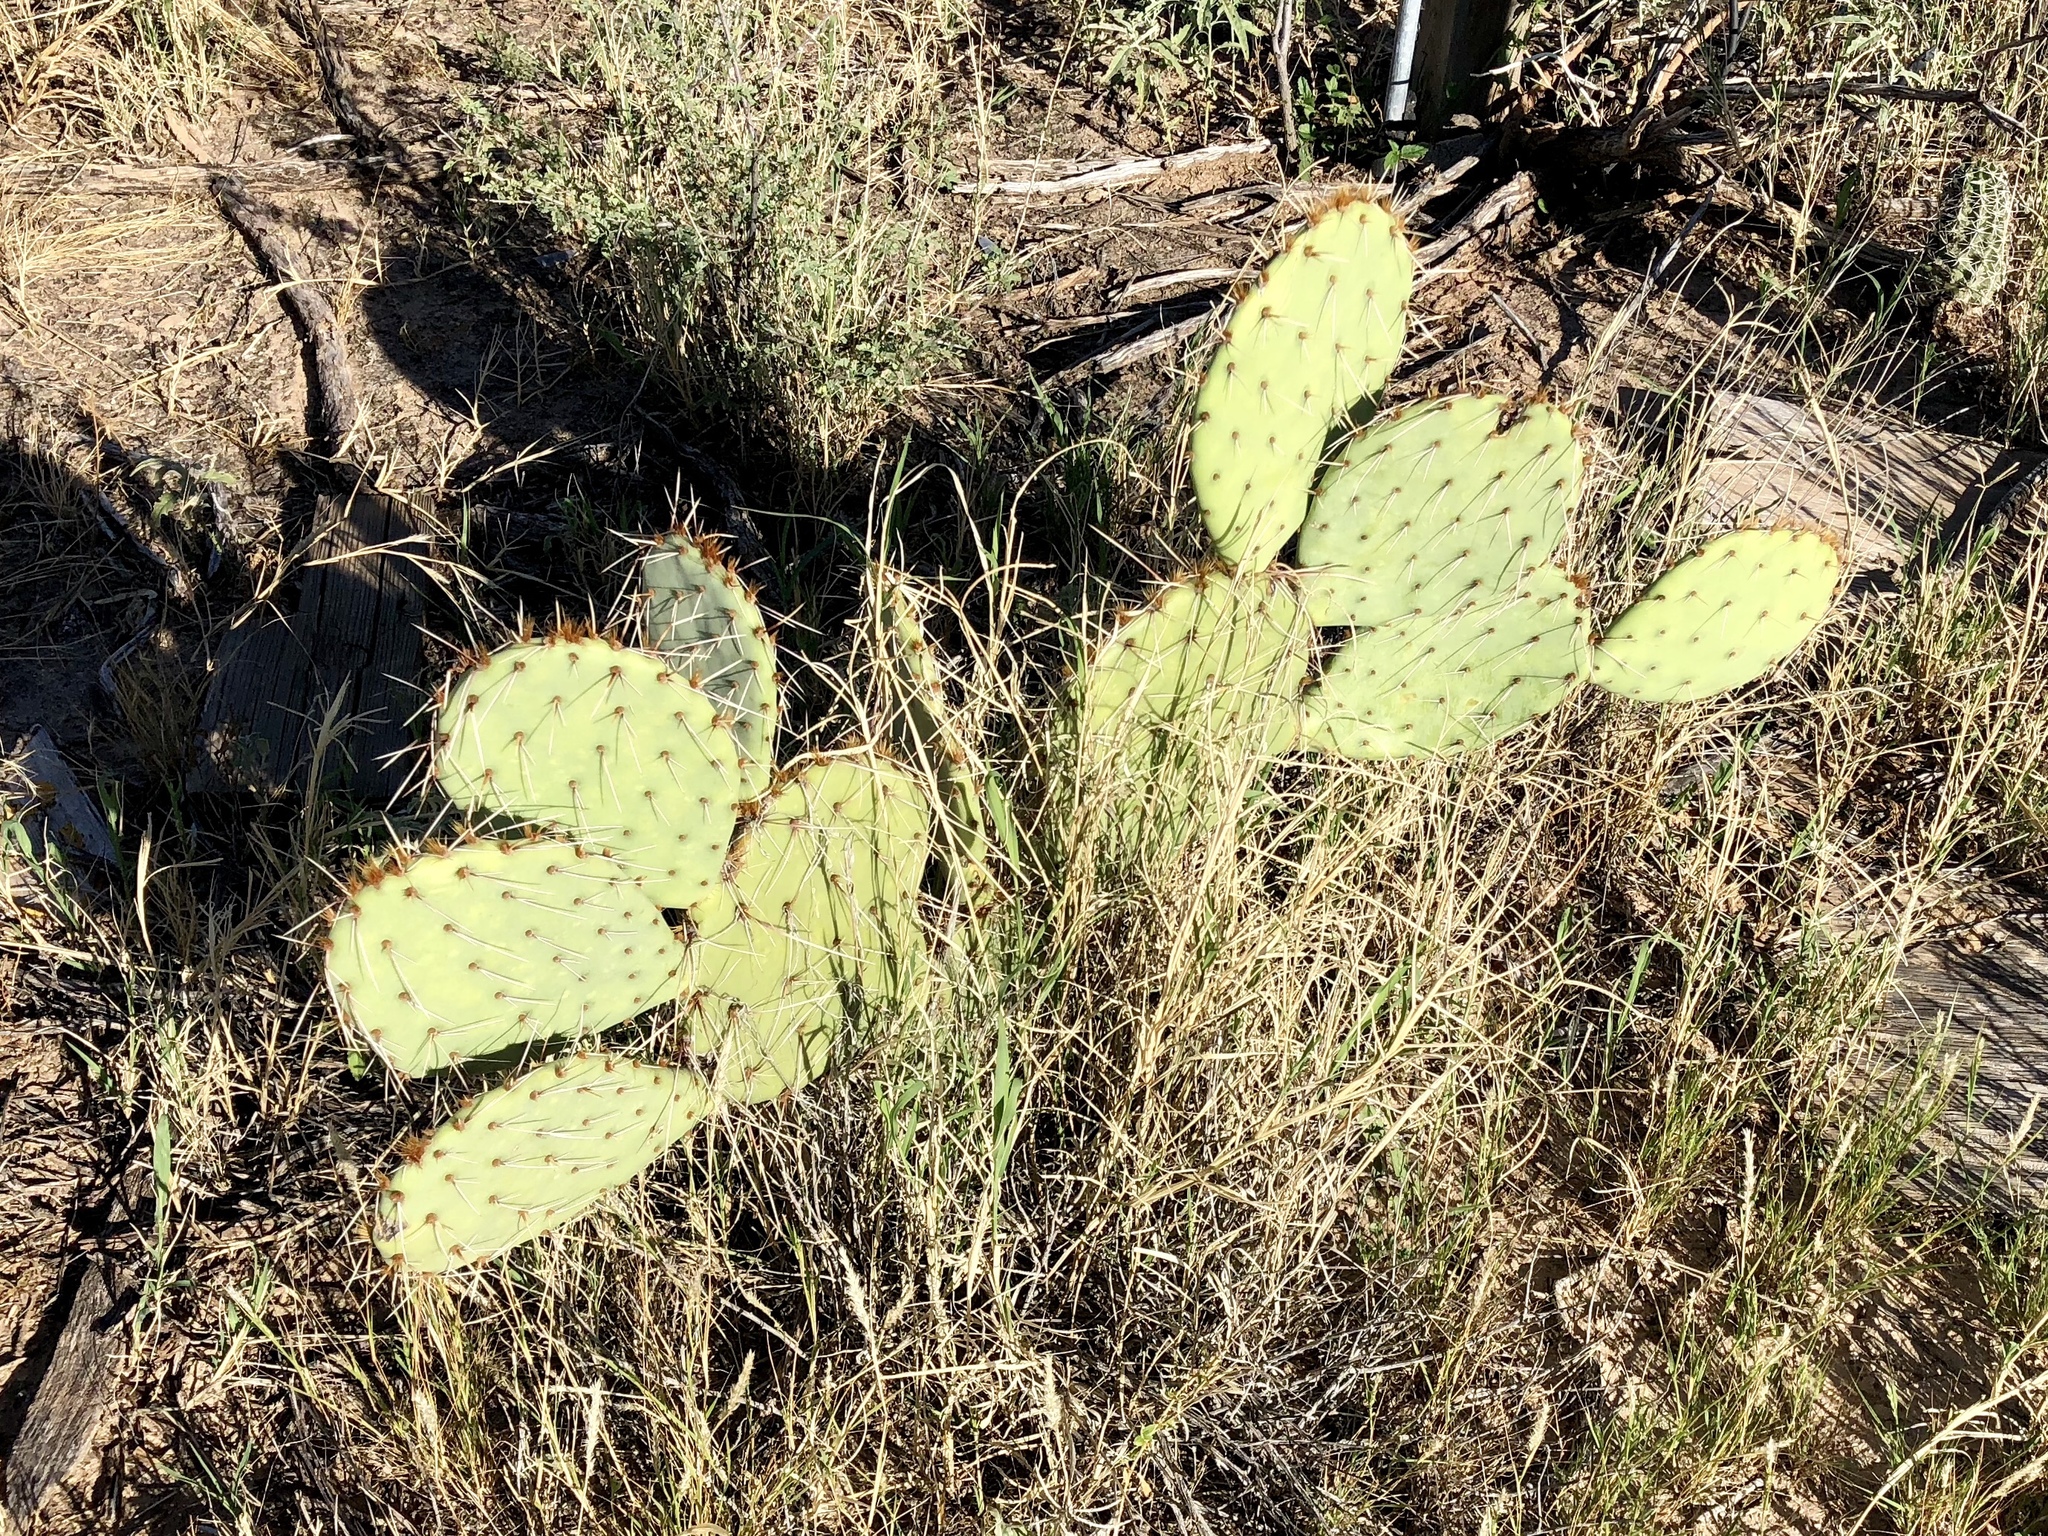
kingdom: Plantae
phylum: Tracheophyta
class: Magnoliopsida
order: Caryophyllales
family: Cactaceae
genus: Opuntia
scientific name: Opuntia engelmannii
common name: Cactus-apple
